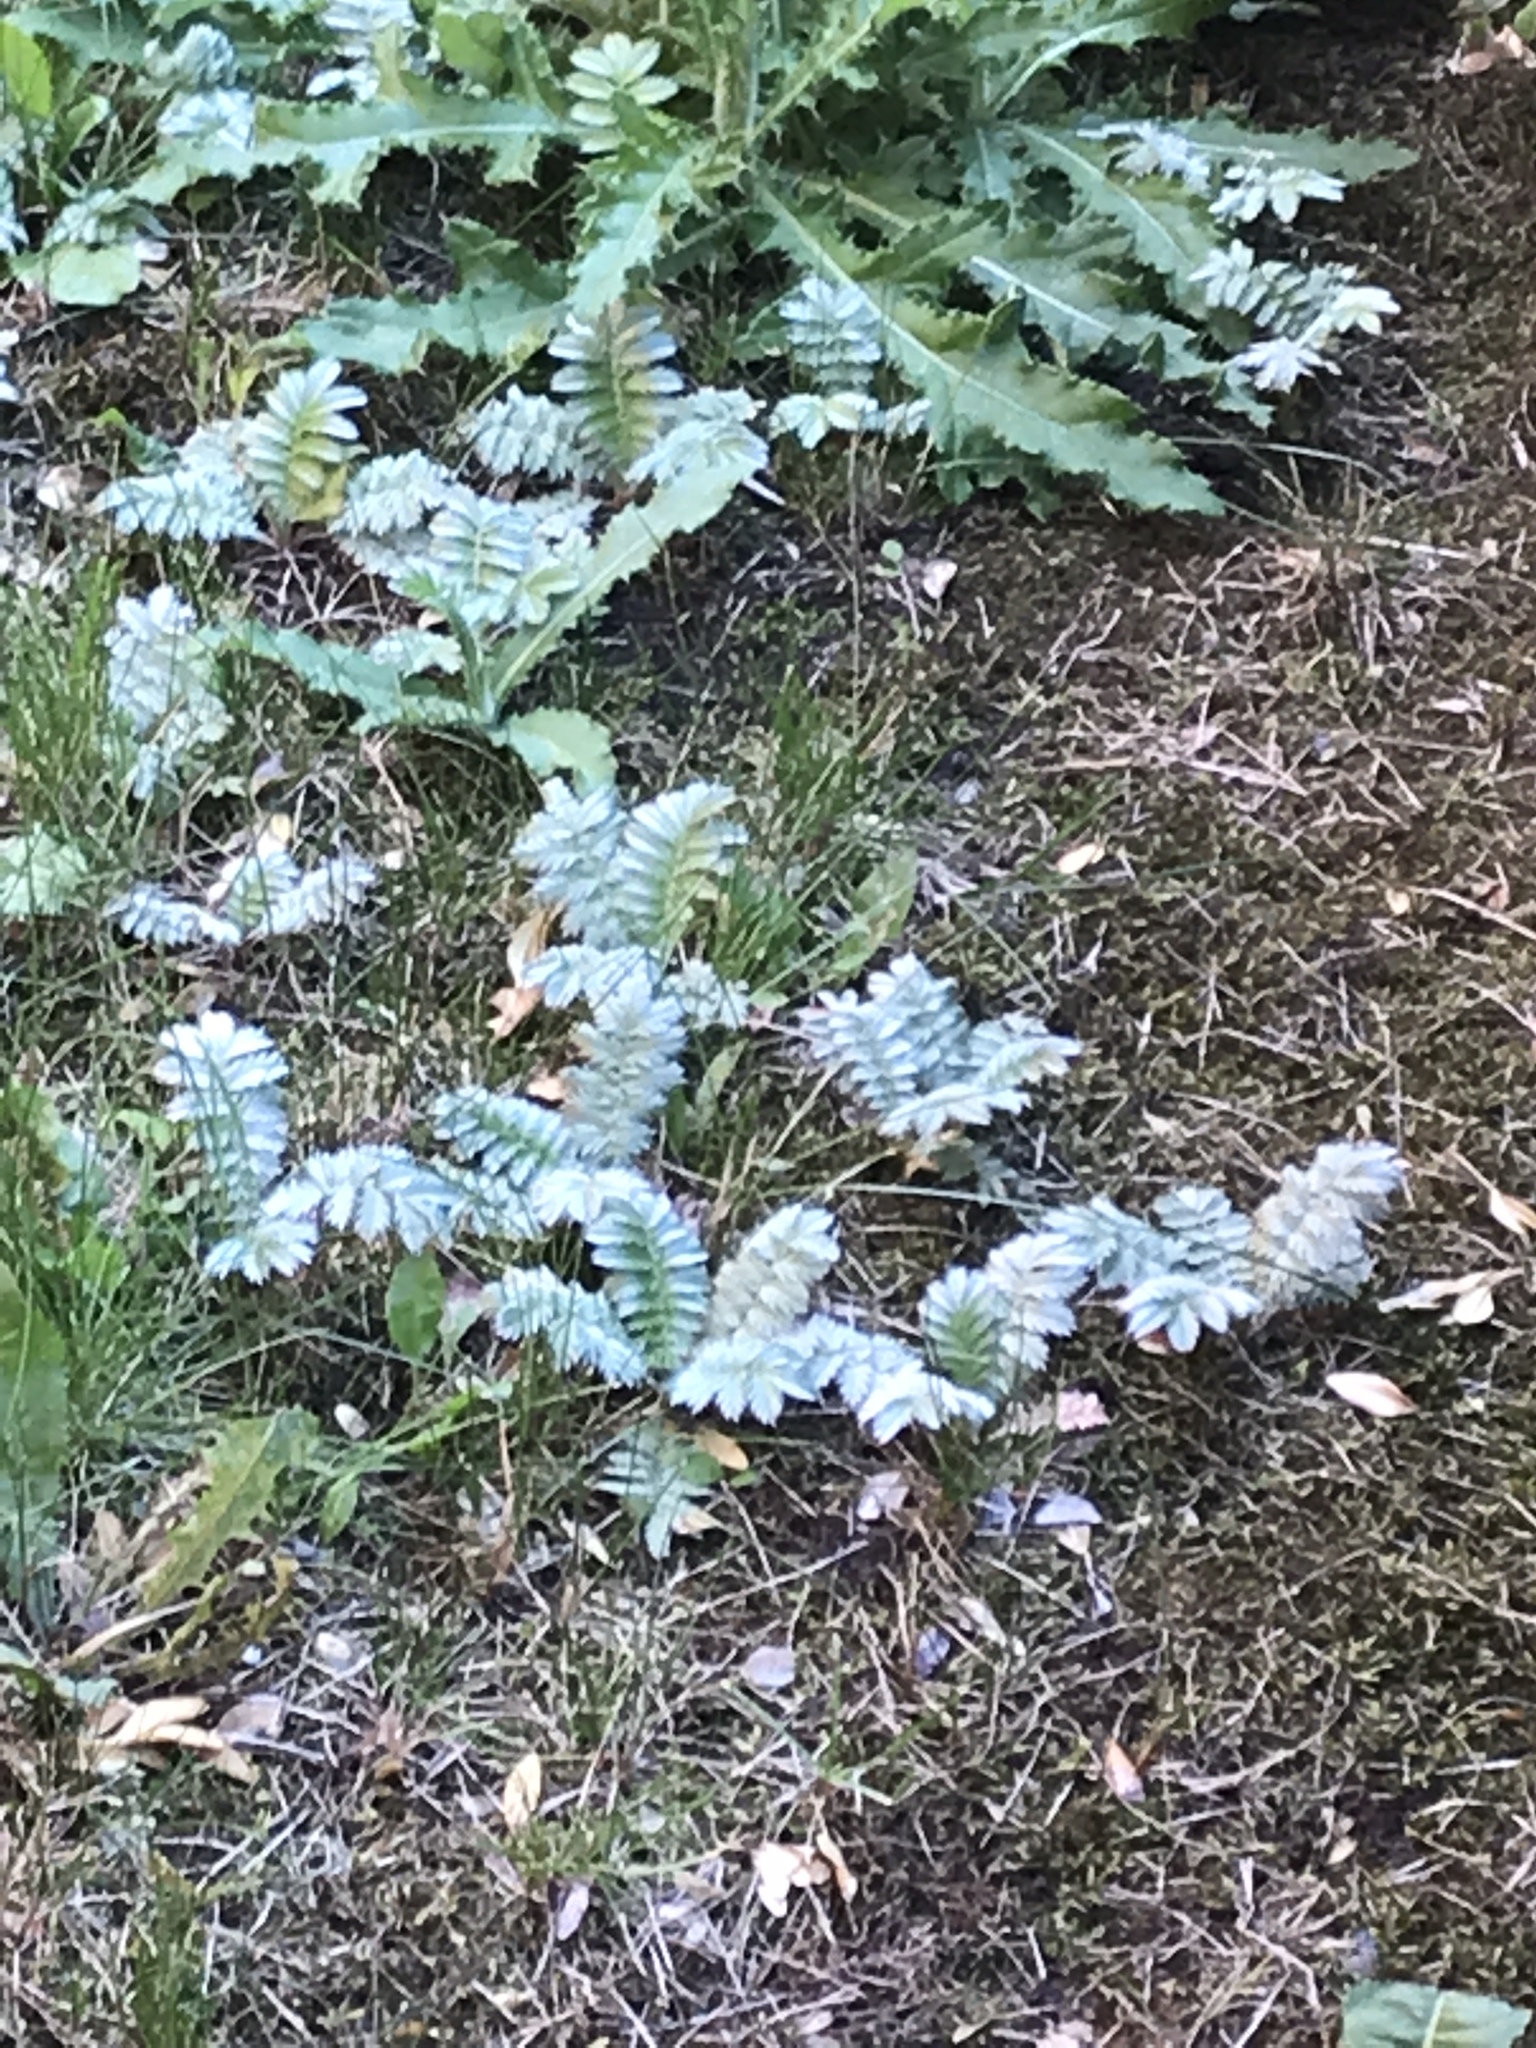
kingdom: Plantae
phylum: Tracheophyta
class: Magnoliopsida
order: Rosales
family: Rosaceae
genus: Argentina
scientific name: Argentina anserina
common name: Common silverweed
